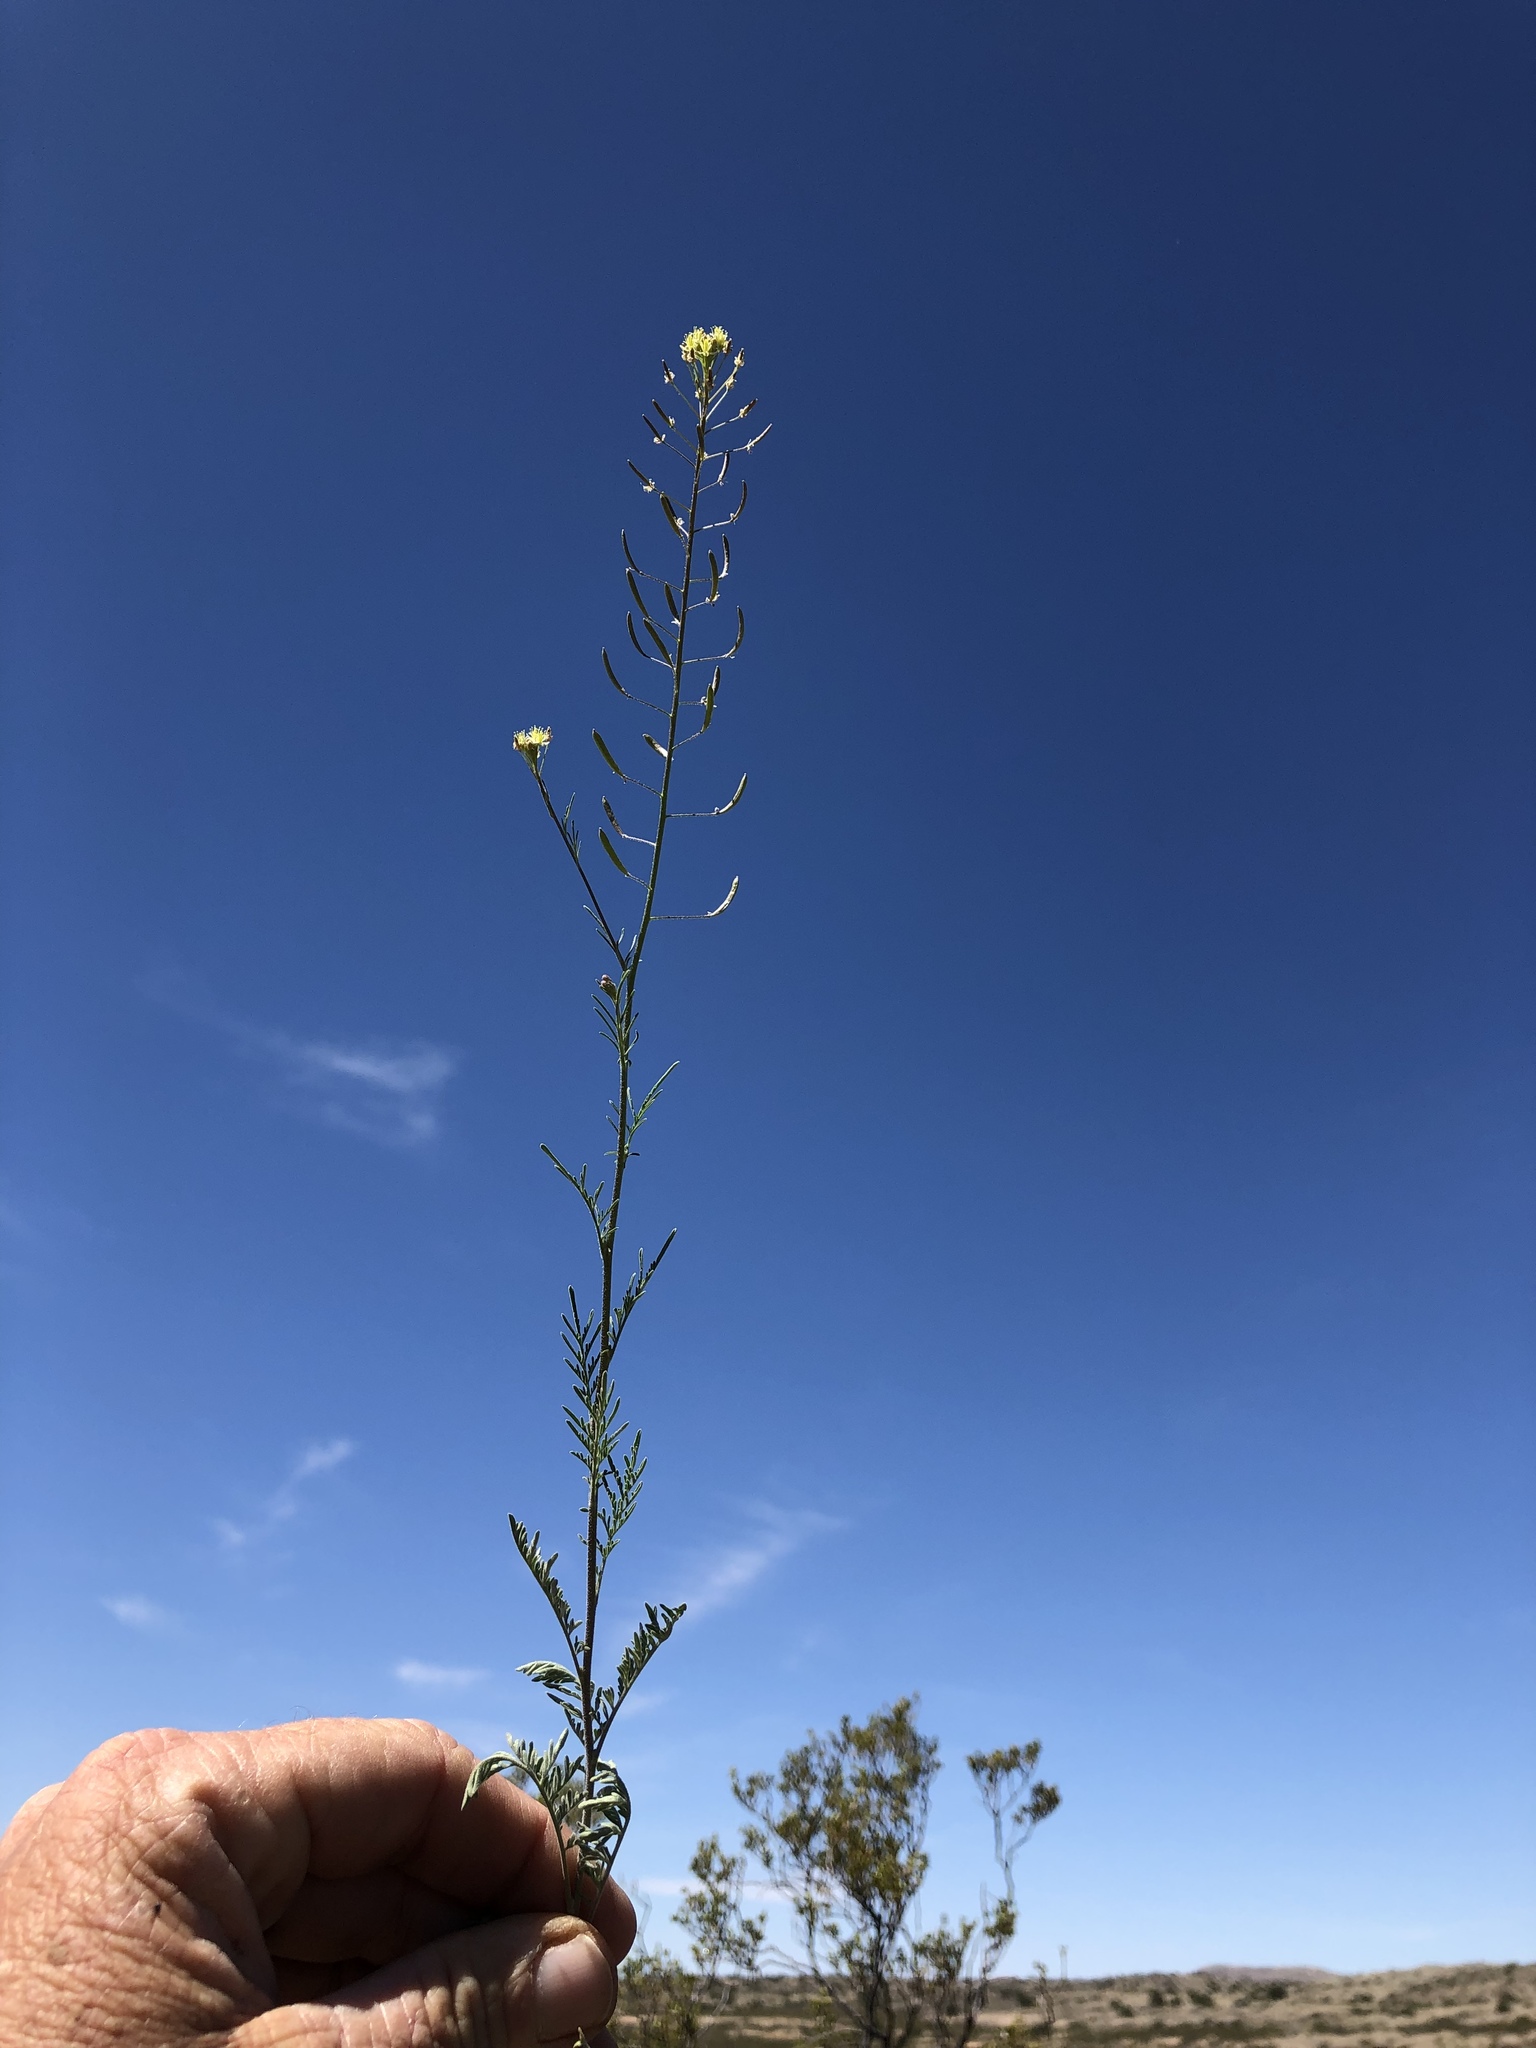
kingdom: Plantae
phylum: Tracheophyta
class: Magnoliopsida
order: Brassicales
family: Brassicaceae
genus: Descurainia
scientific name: Descurainia pinnata
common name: Western tansy mustard
